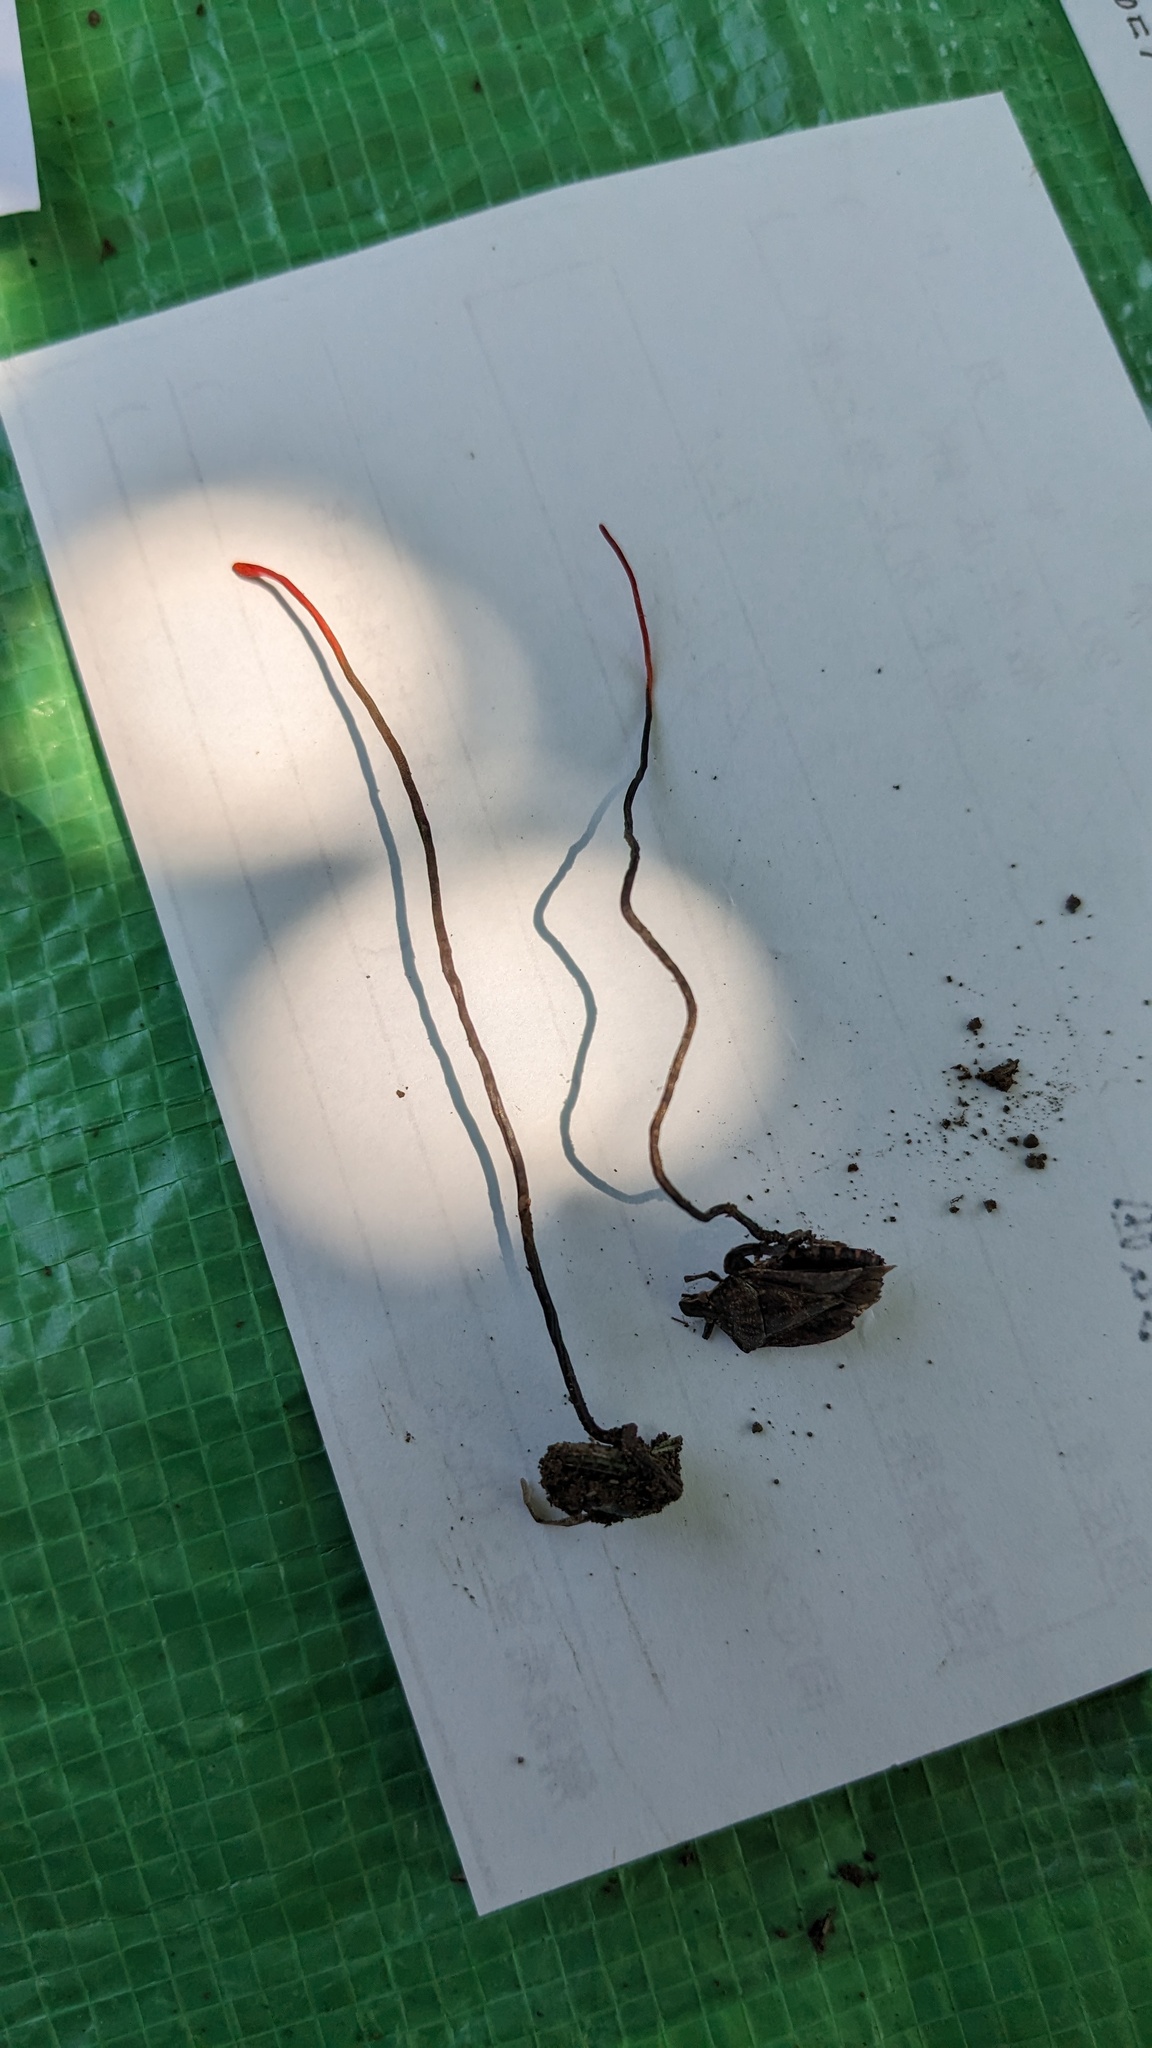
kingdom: Fungi
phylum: Ascomycota
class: Sordariomycetes
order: Hypocreales
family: Ophiocordycipitaceae
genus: Ophiocordyceps
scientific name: Ophiocordyceps nutans
